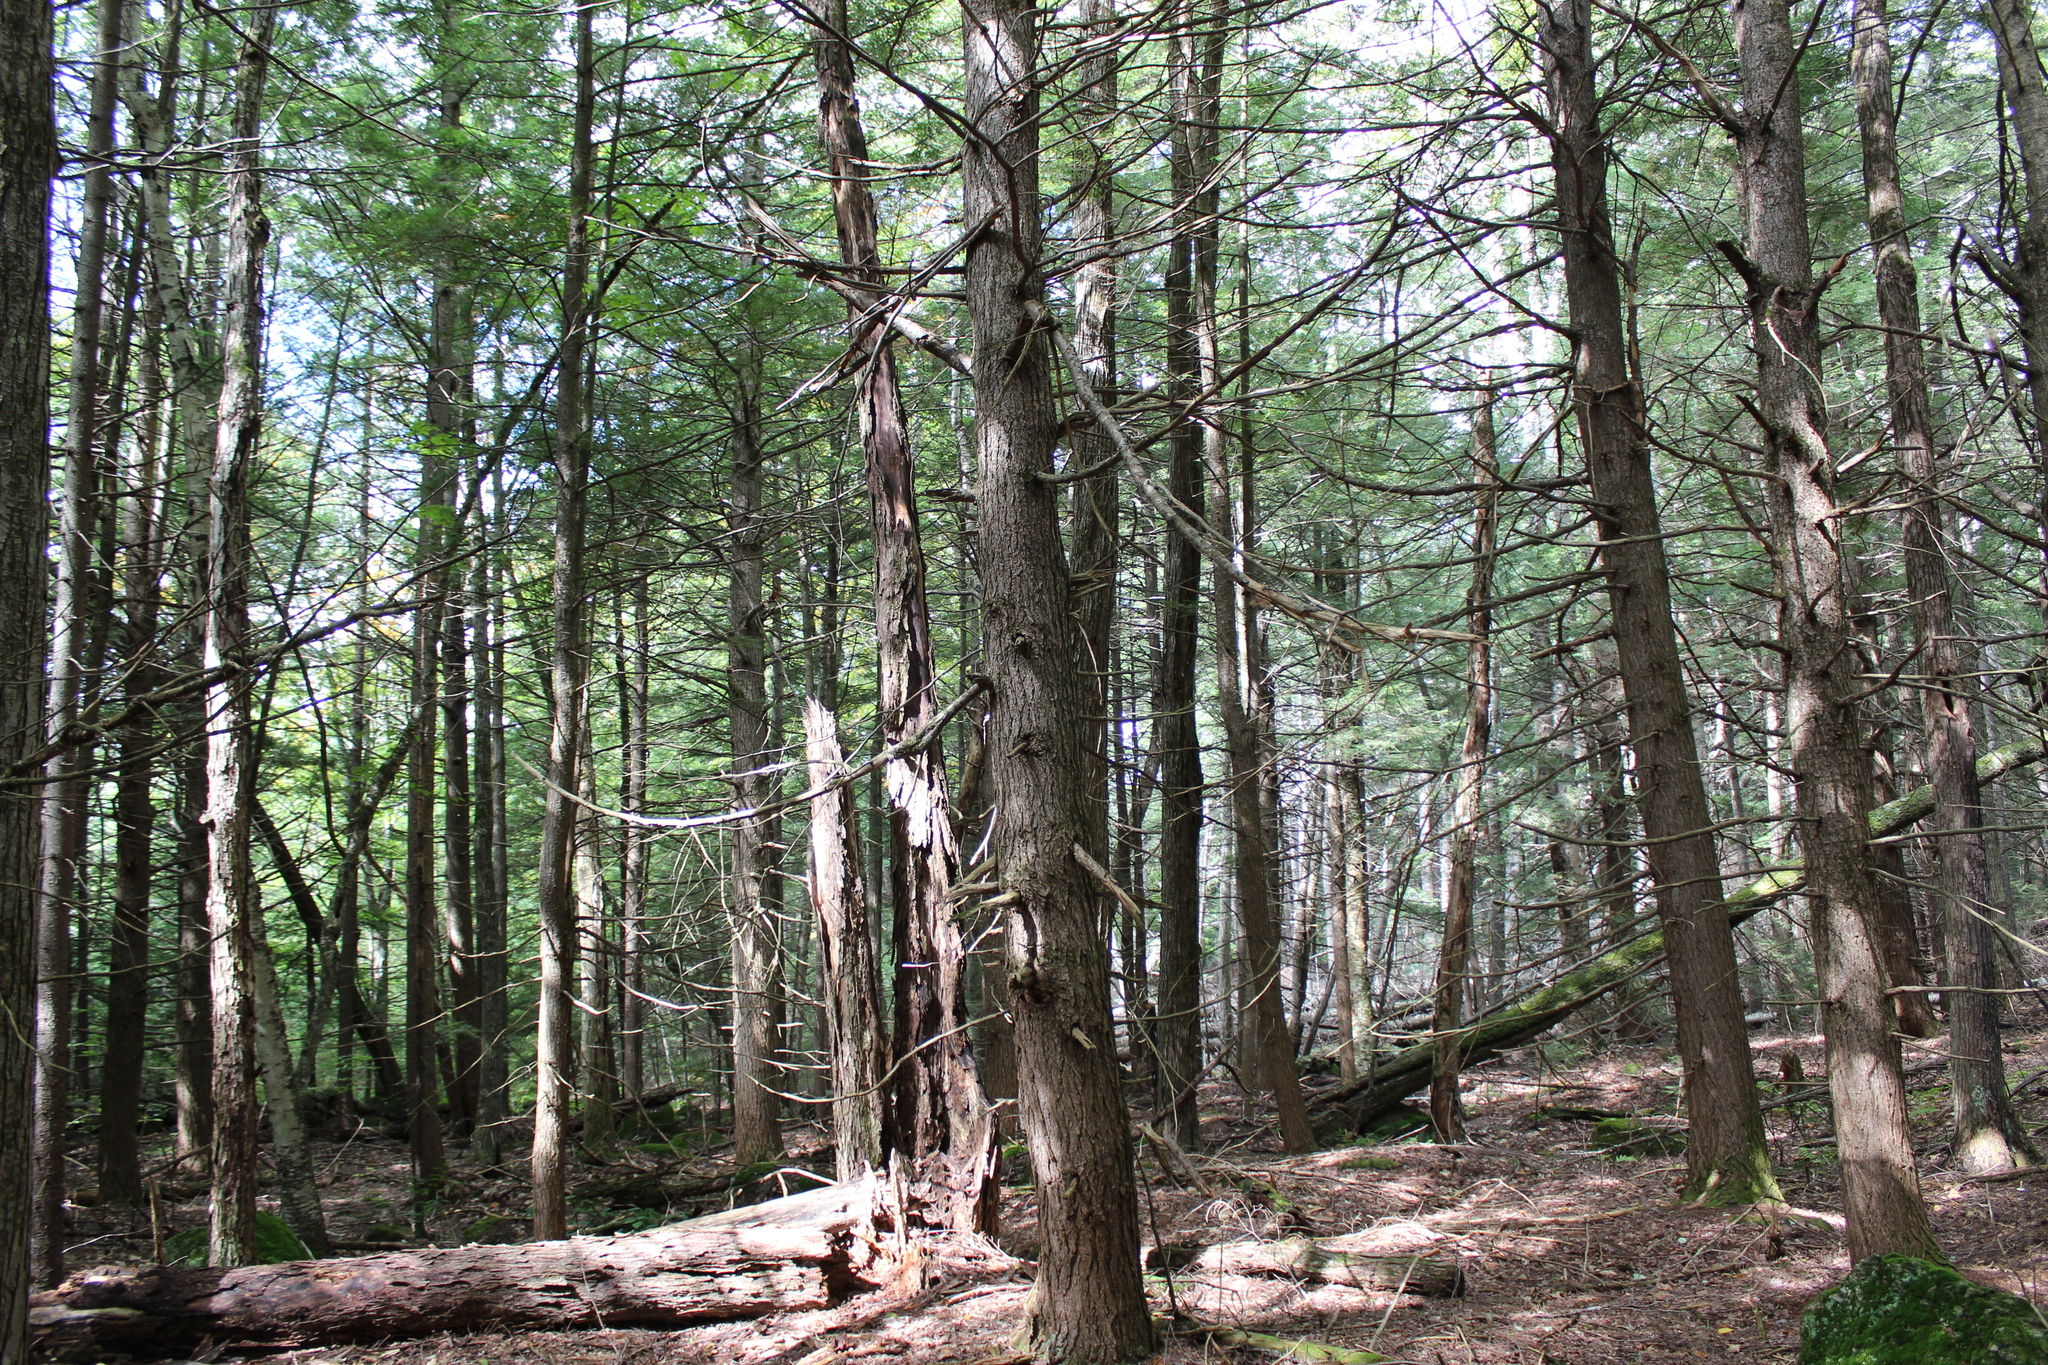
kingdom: Plantae
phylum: Tracheophyta
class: Pinopsida
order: Pinales
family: Pinaceae
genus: Tsuga
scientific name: Tsuga canadensis
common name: Eastern hemlock
